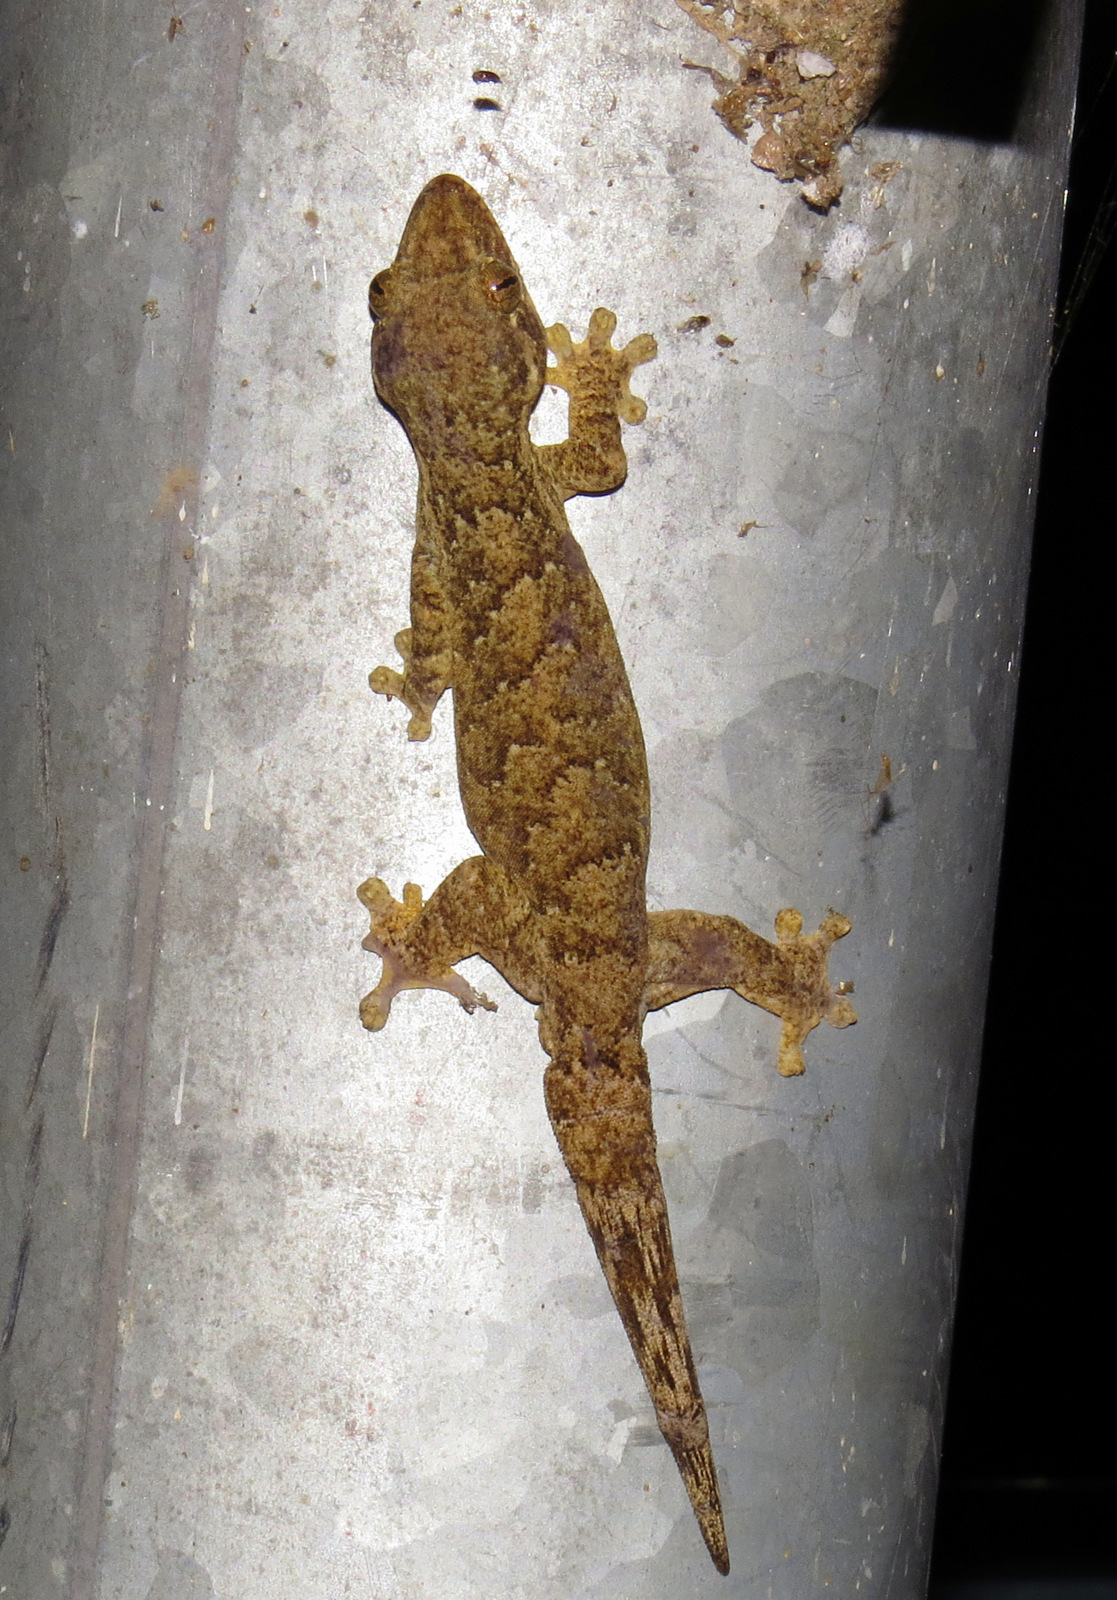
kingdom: Animalia
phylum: Chordata
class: Squamata
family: Phyllodactylidae
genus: Thecadactylus
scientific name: Thecadactylus rapicauda
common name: Turnip-tailed gecko
